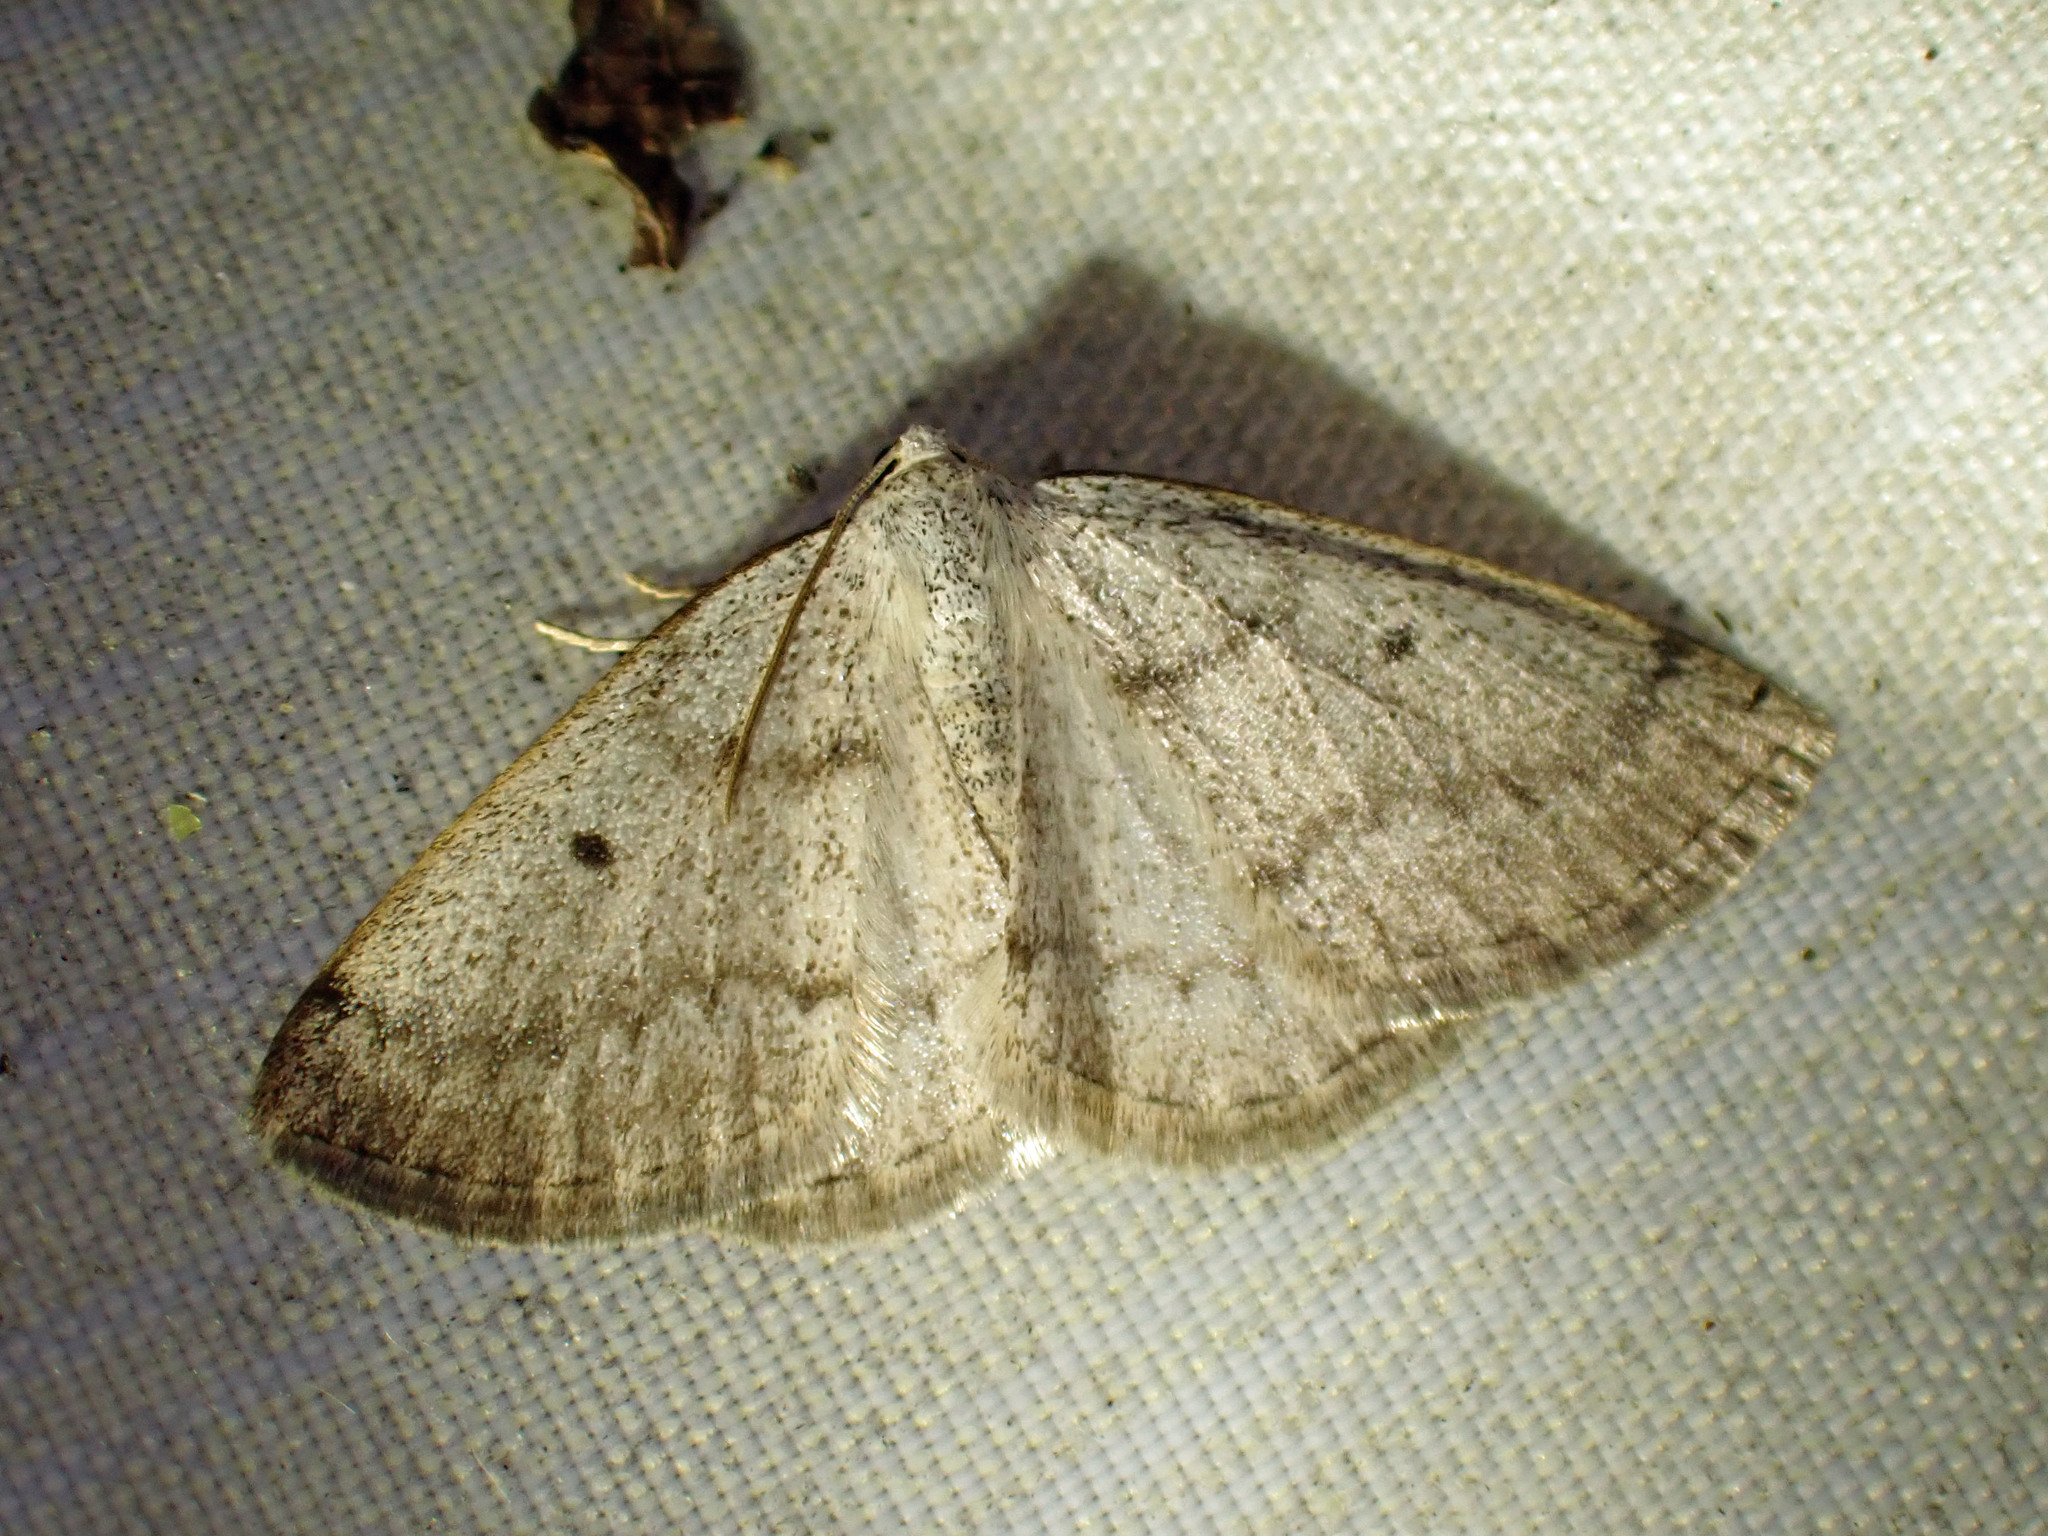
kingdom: Animalia
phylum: Arthropoda
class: Insecta
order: Lepidoptera
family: Geometridae
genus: Lomographa
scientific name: Lomographa glomeraria
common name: Gray spring moth
